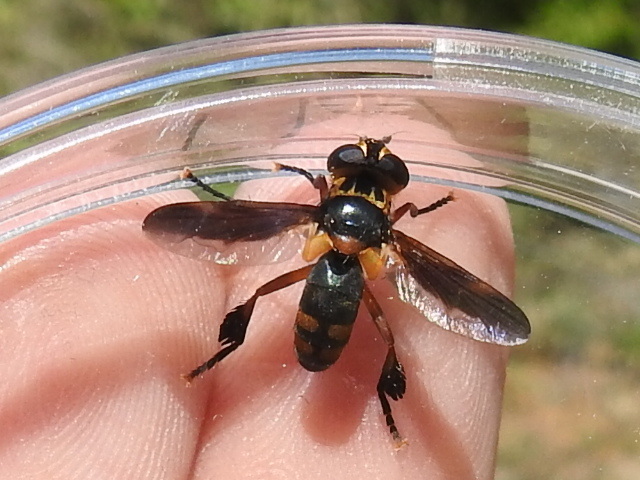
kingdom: Animalia
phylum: Arthropoda
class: Insecta
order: Diptera
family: Tachinidae
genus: Trichopoda
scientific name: Trichopoda plumipes
